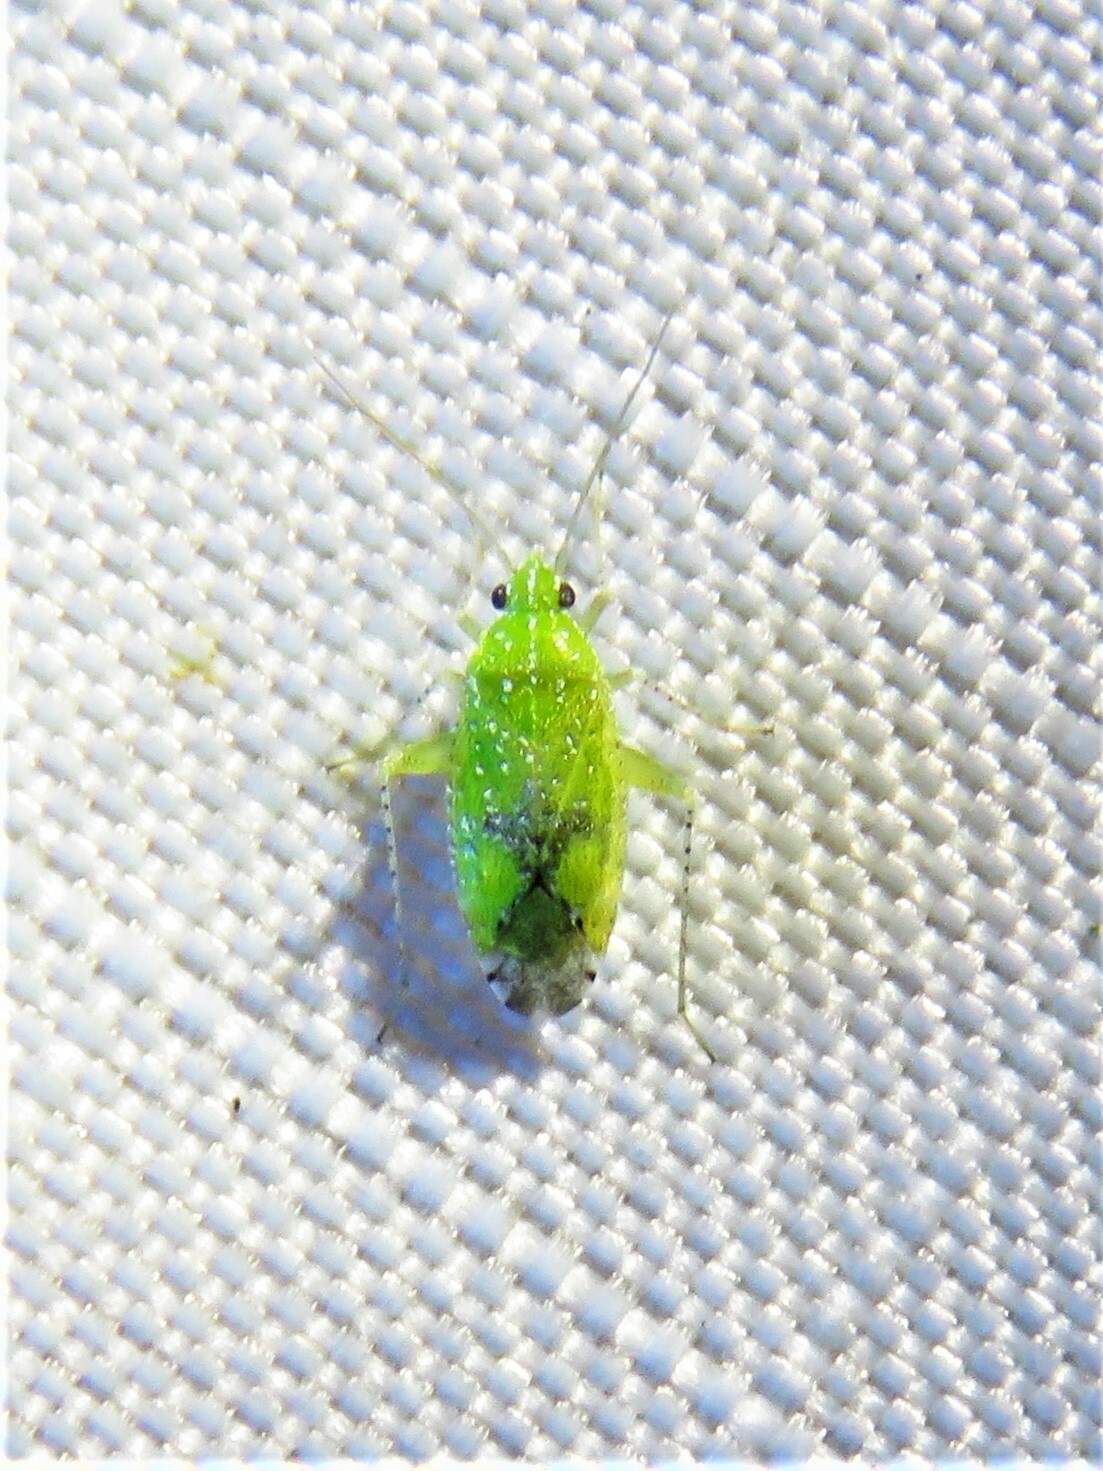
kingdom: Animalia
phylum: Arthropoda
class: Insecta
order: Hemiptera
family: Miridae
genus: Keltonia
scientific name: Keltonia tuckeri
